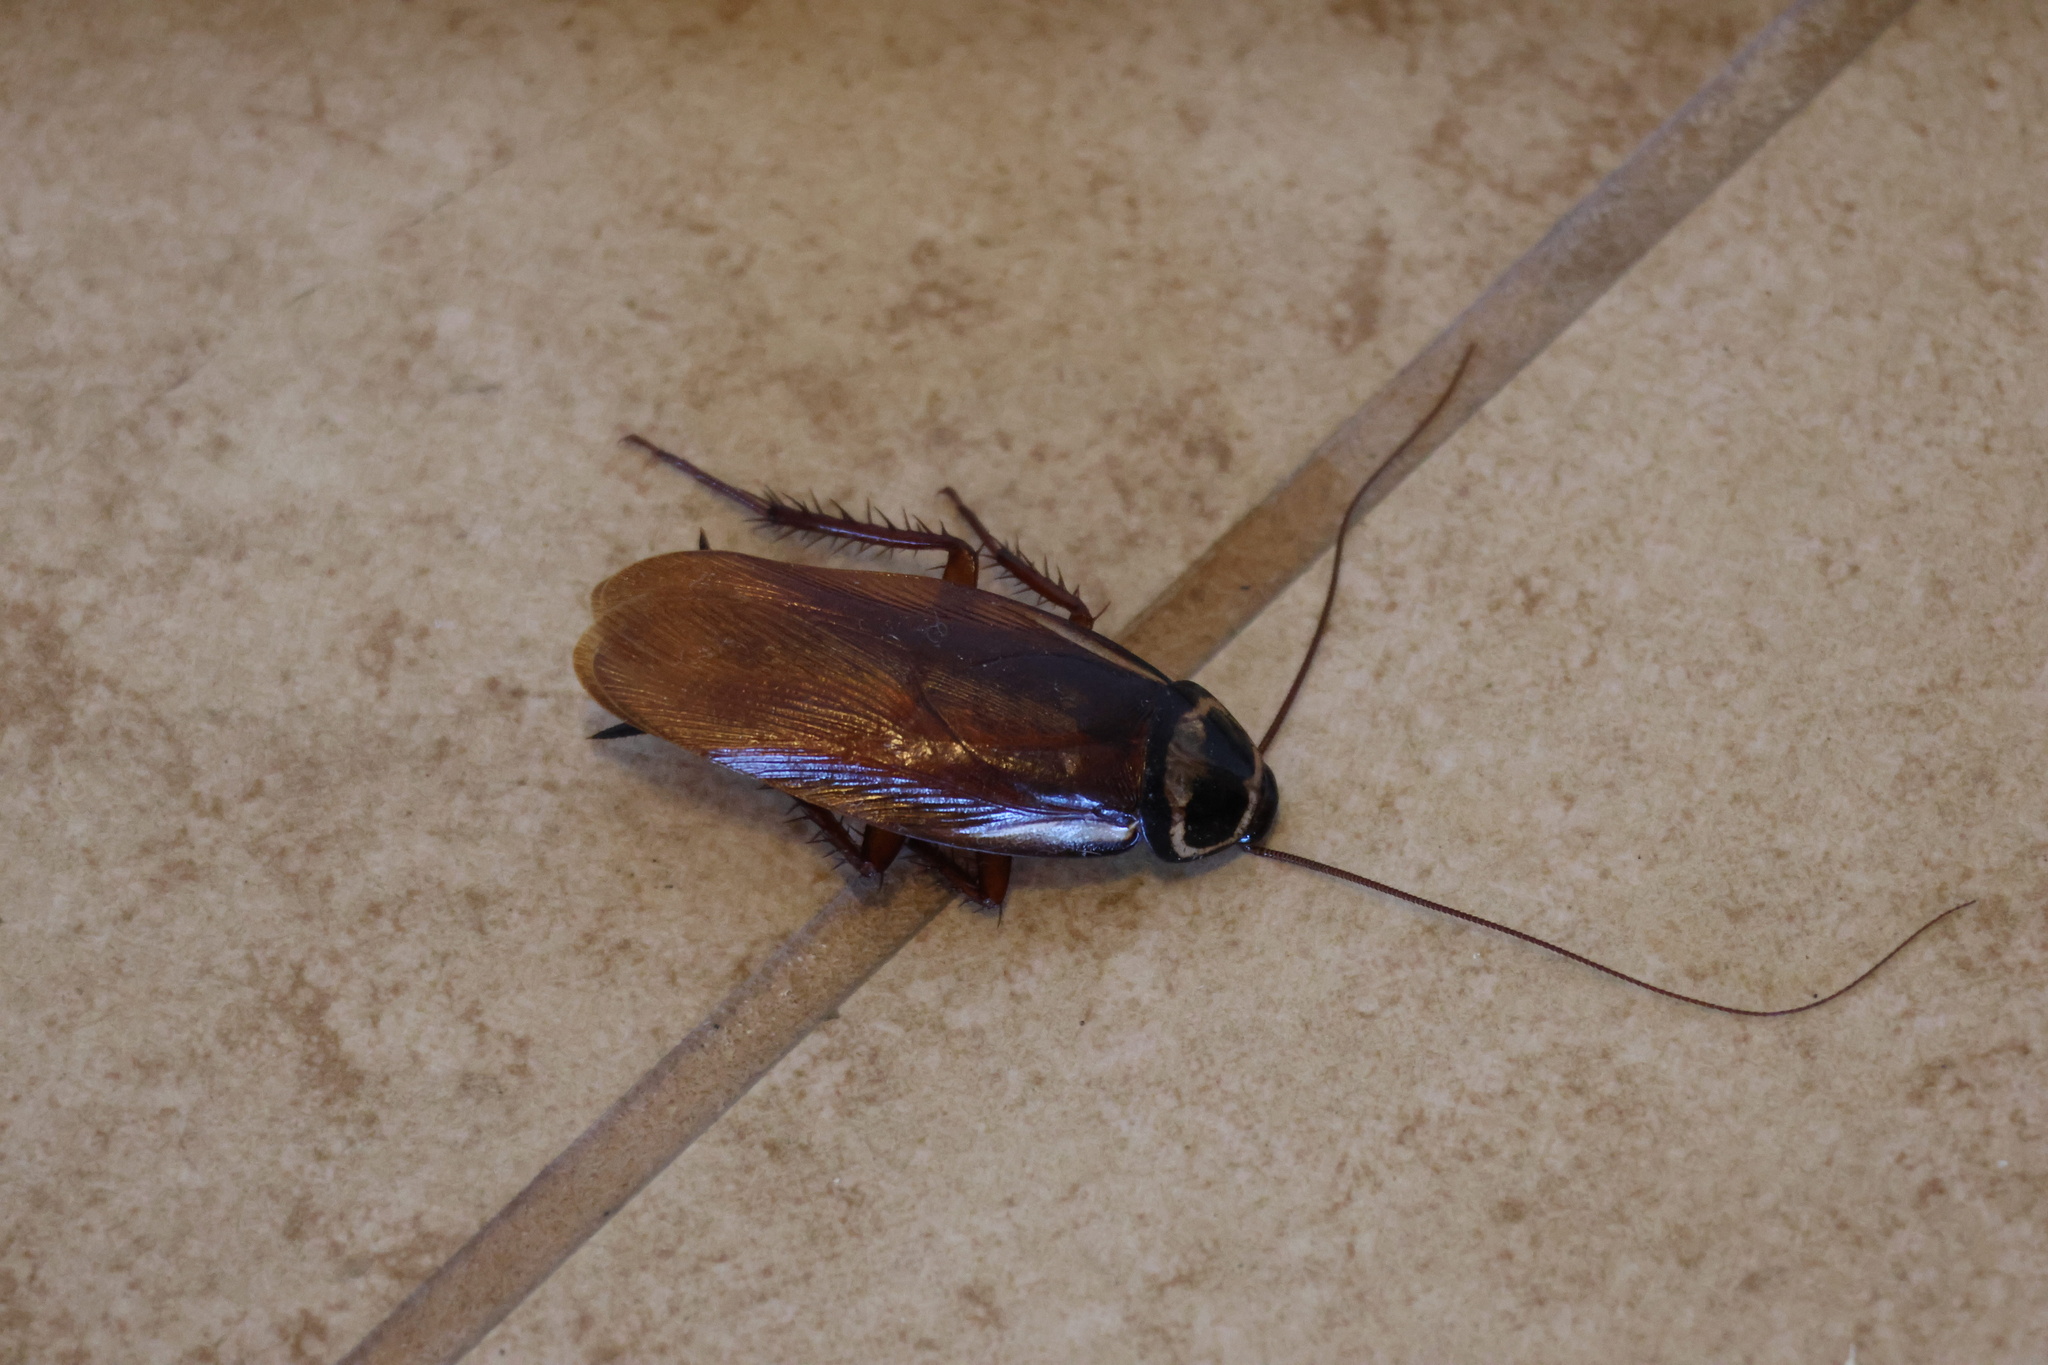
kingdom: Animalia
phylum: Arthropoda
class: Insecta
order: Blattodea
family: Blattidae
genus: Periplaneta
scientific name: Periplaneta australasiae
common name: Australian cockroach
